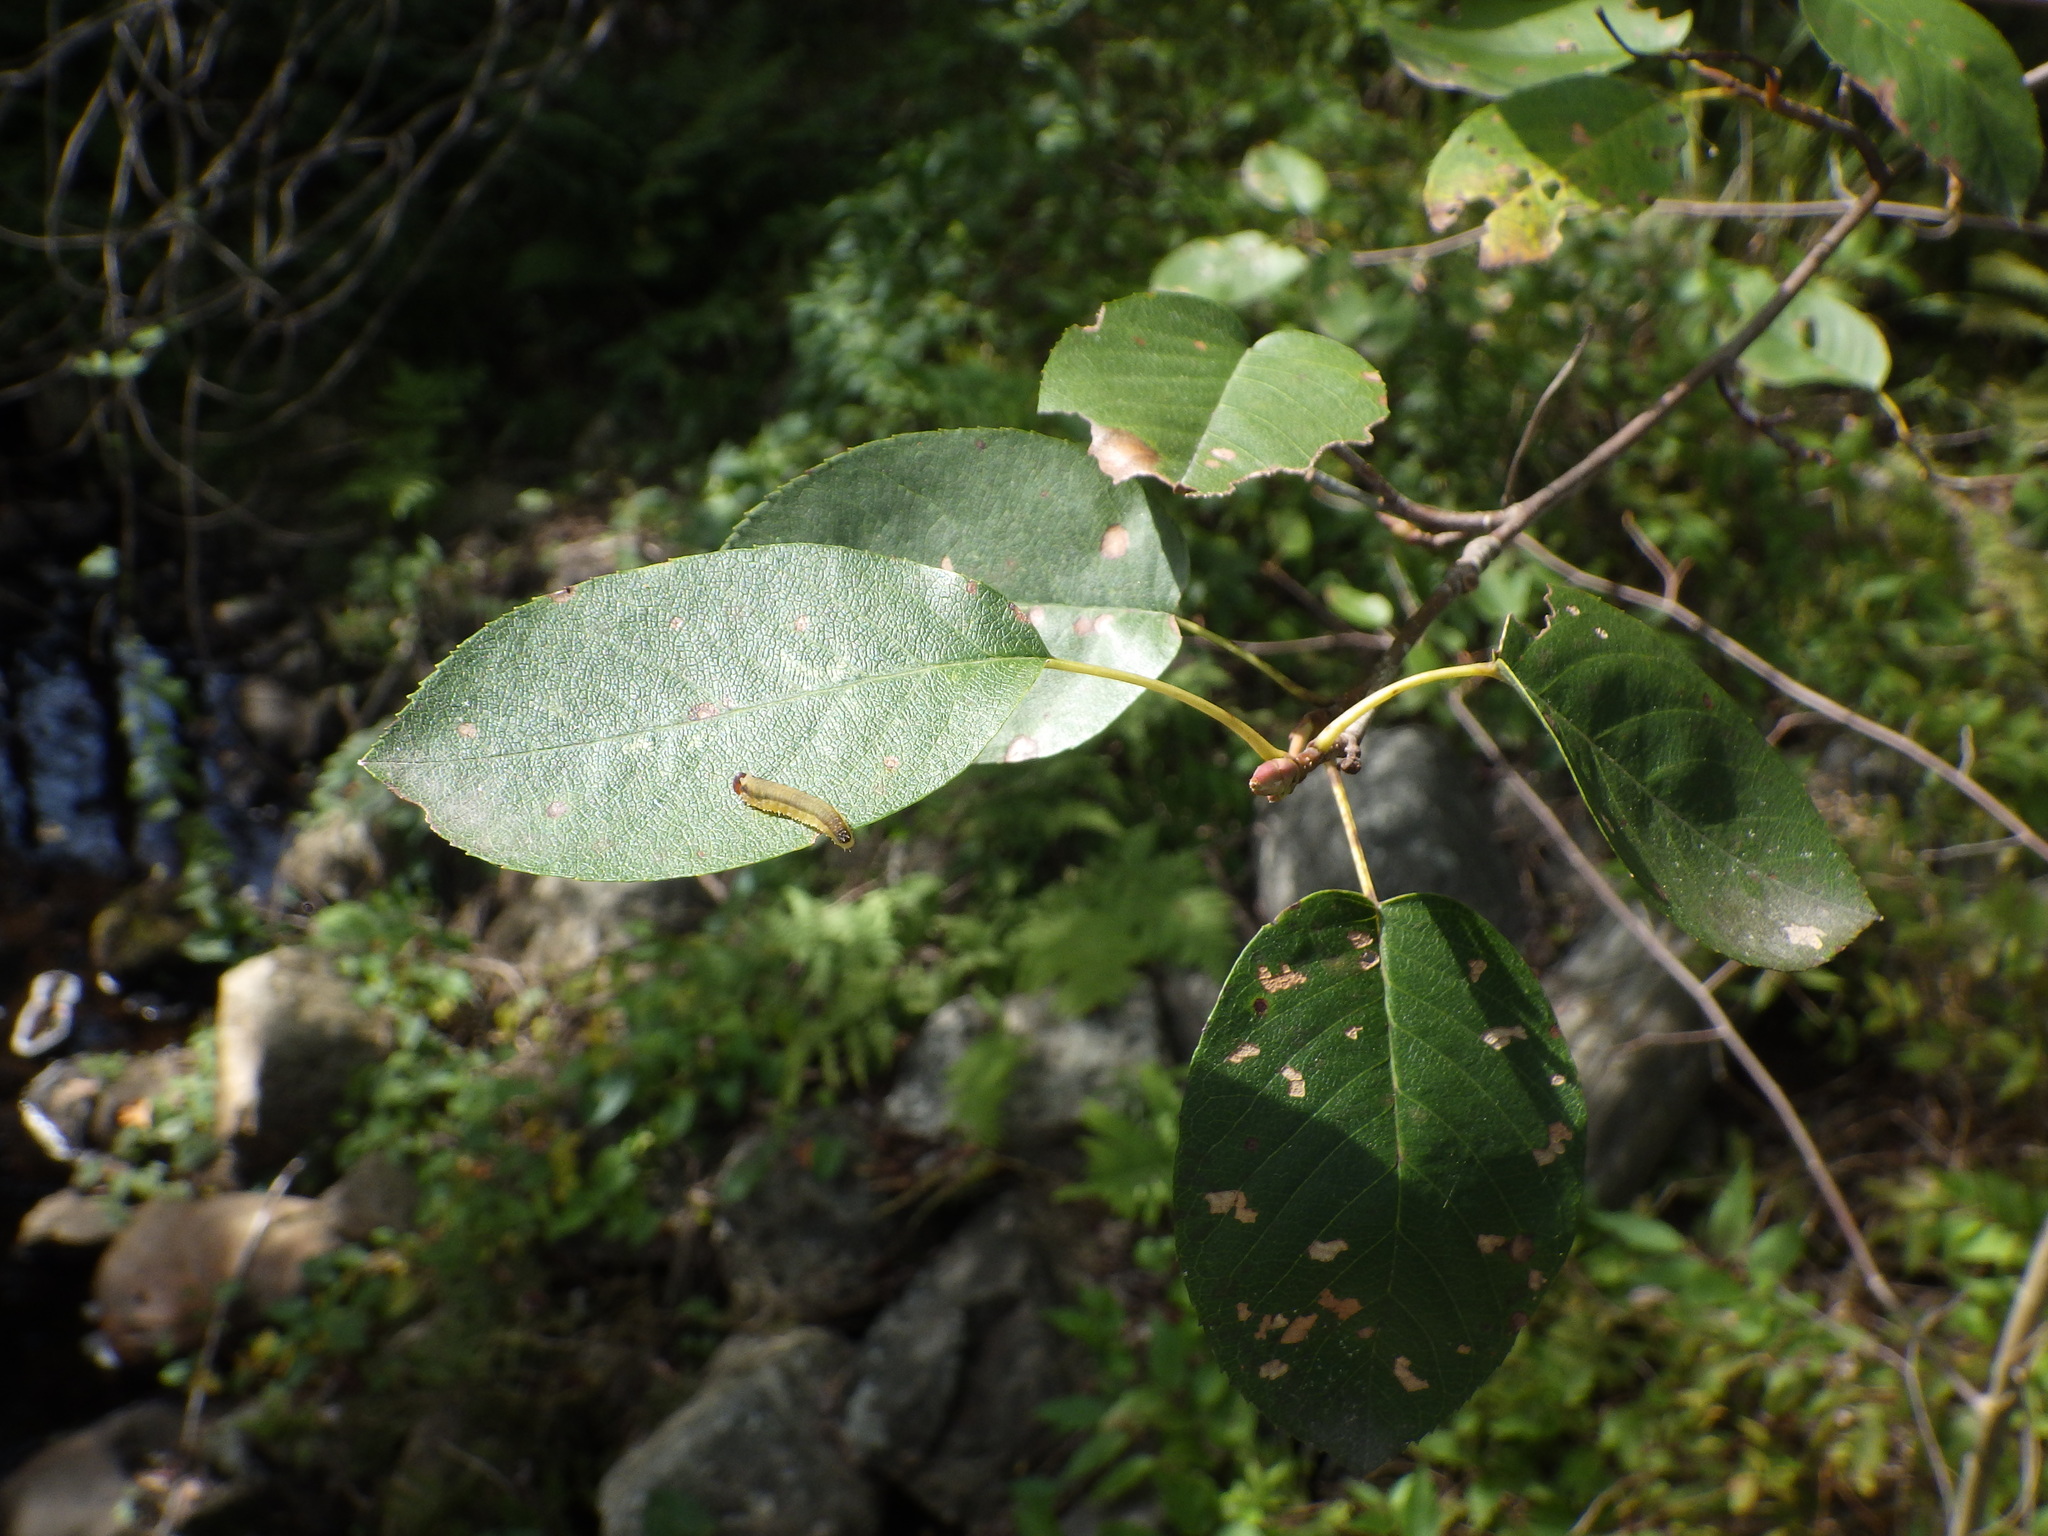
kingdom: Animalia
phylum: Arthropoda
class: Insecta
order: Hymenoptera
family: Tenthredinidae
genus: Dimorphopteryx
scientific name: Dimorphopteryx abnormis
